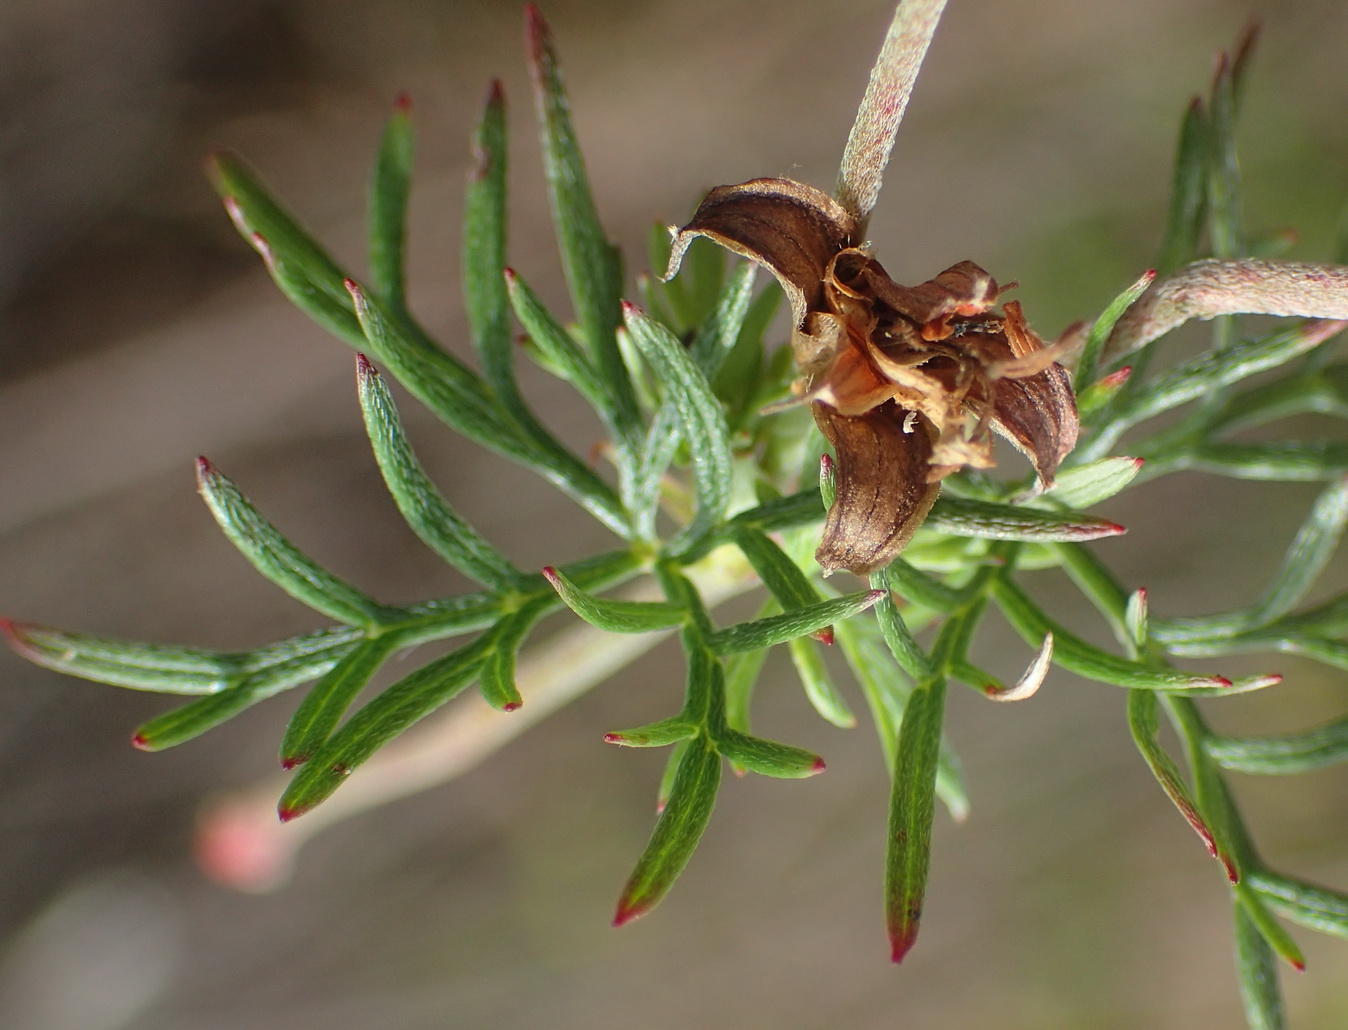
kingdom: Plantae
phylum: Tracheophyta
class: Magnoliopsida
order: Geraniales
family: Geraniaceae
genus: Geranium
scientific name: Geranium incanum
